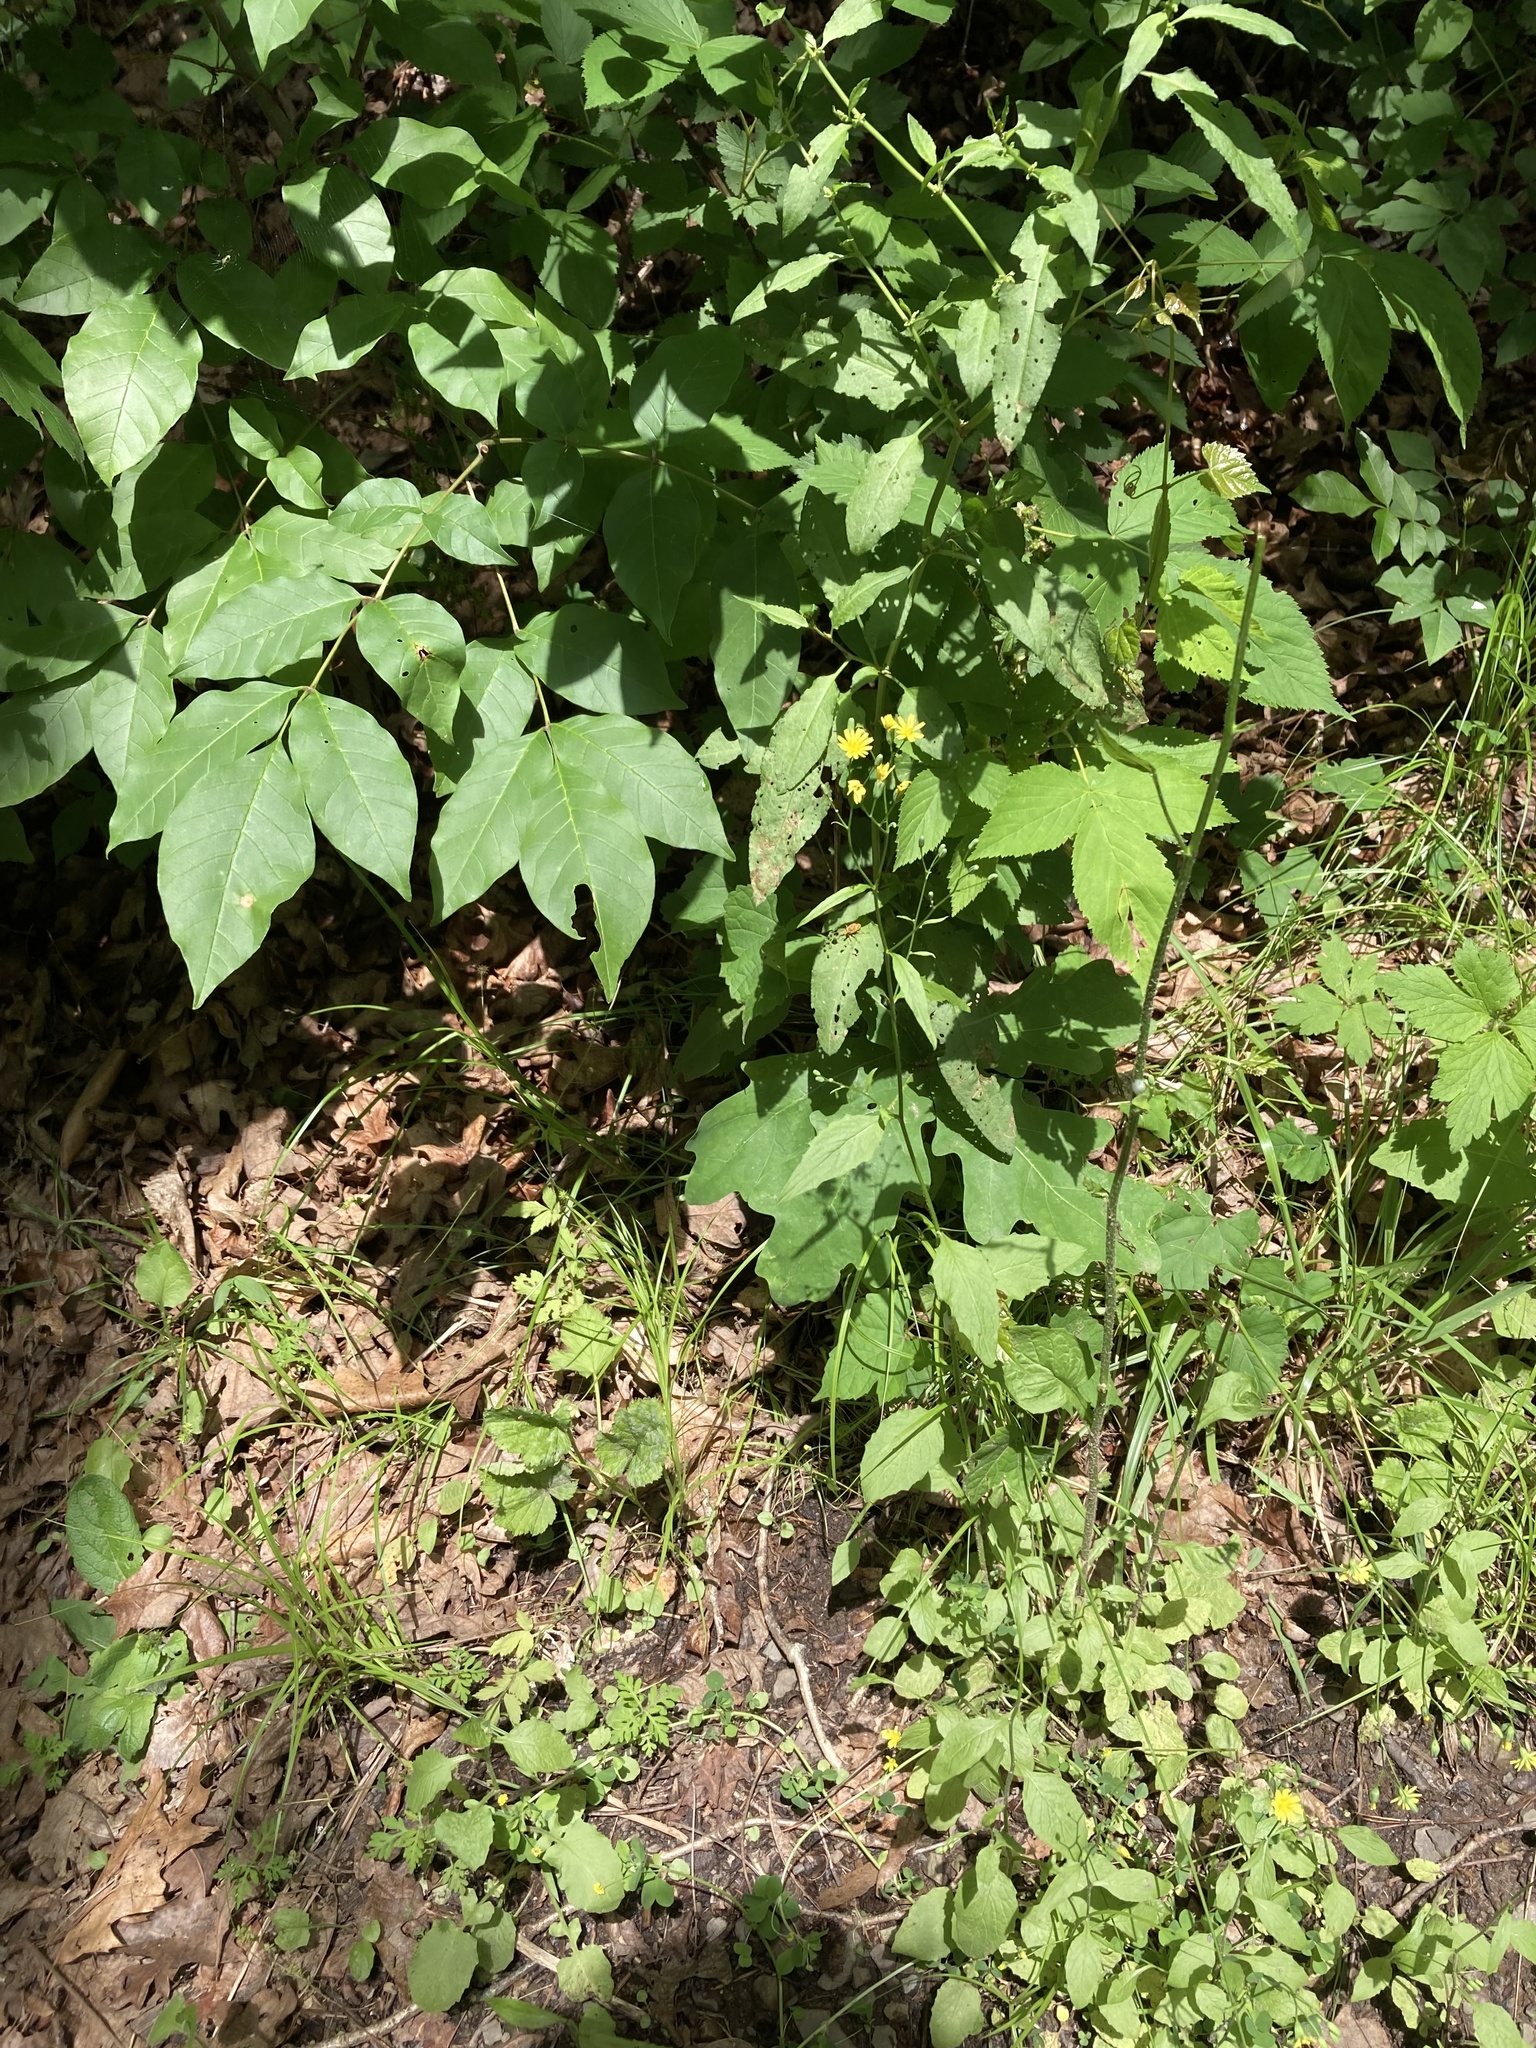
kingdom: Plantae
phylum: Tracheophyta
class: Magnoliopsida
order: Asterales
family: Asteraceae
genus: Lapsana
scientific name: Lapsana communis
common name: Nipplewort
